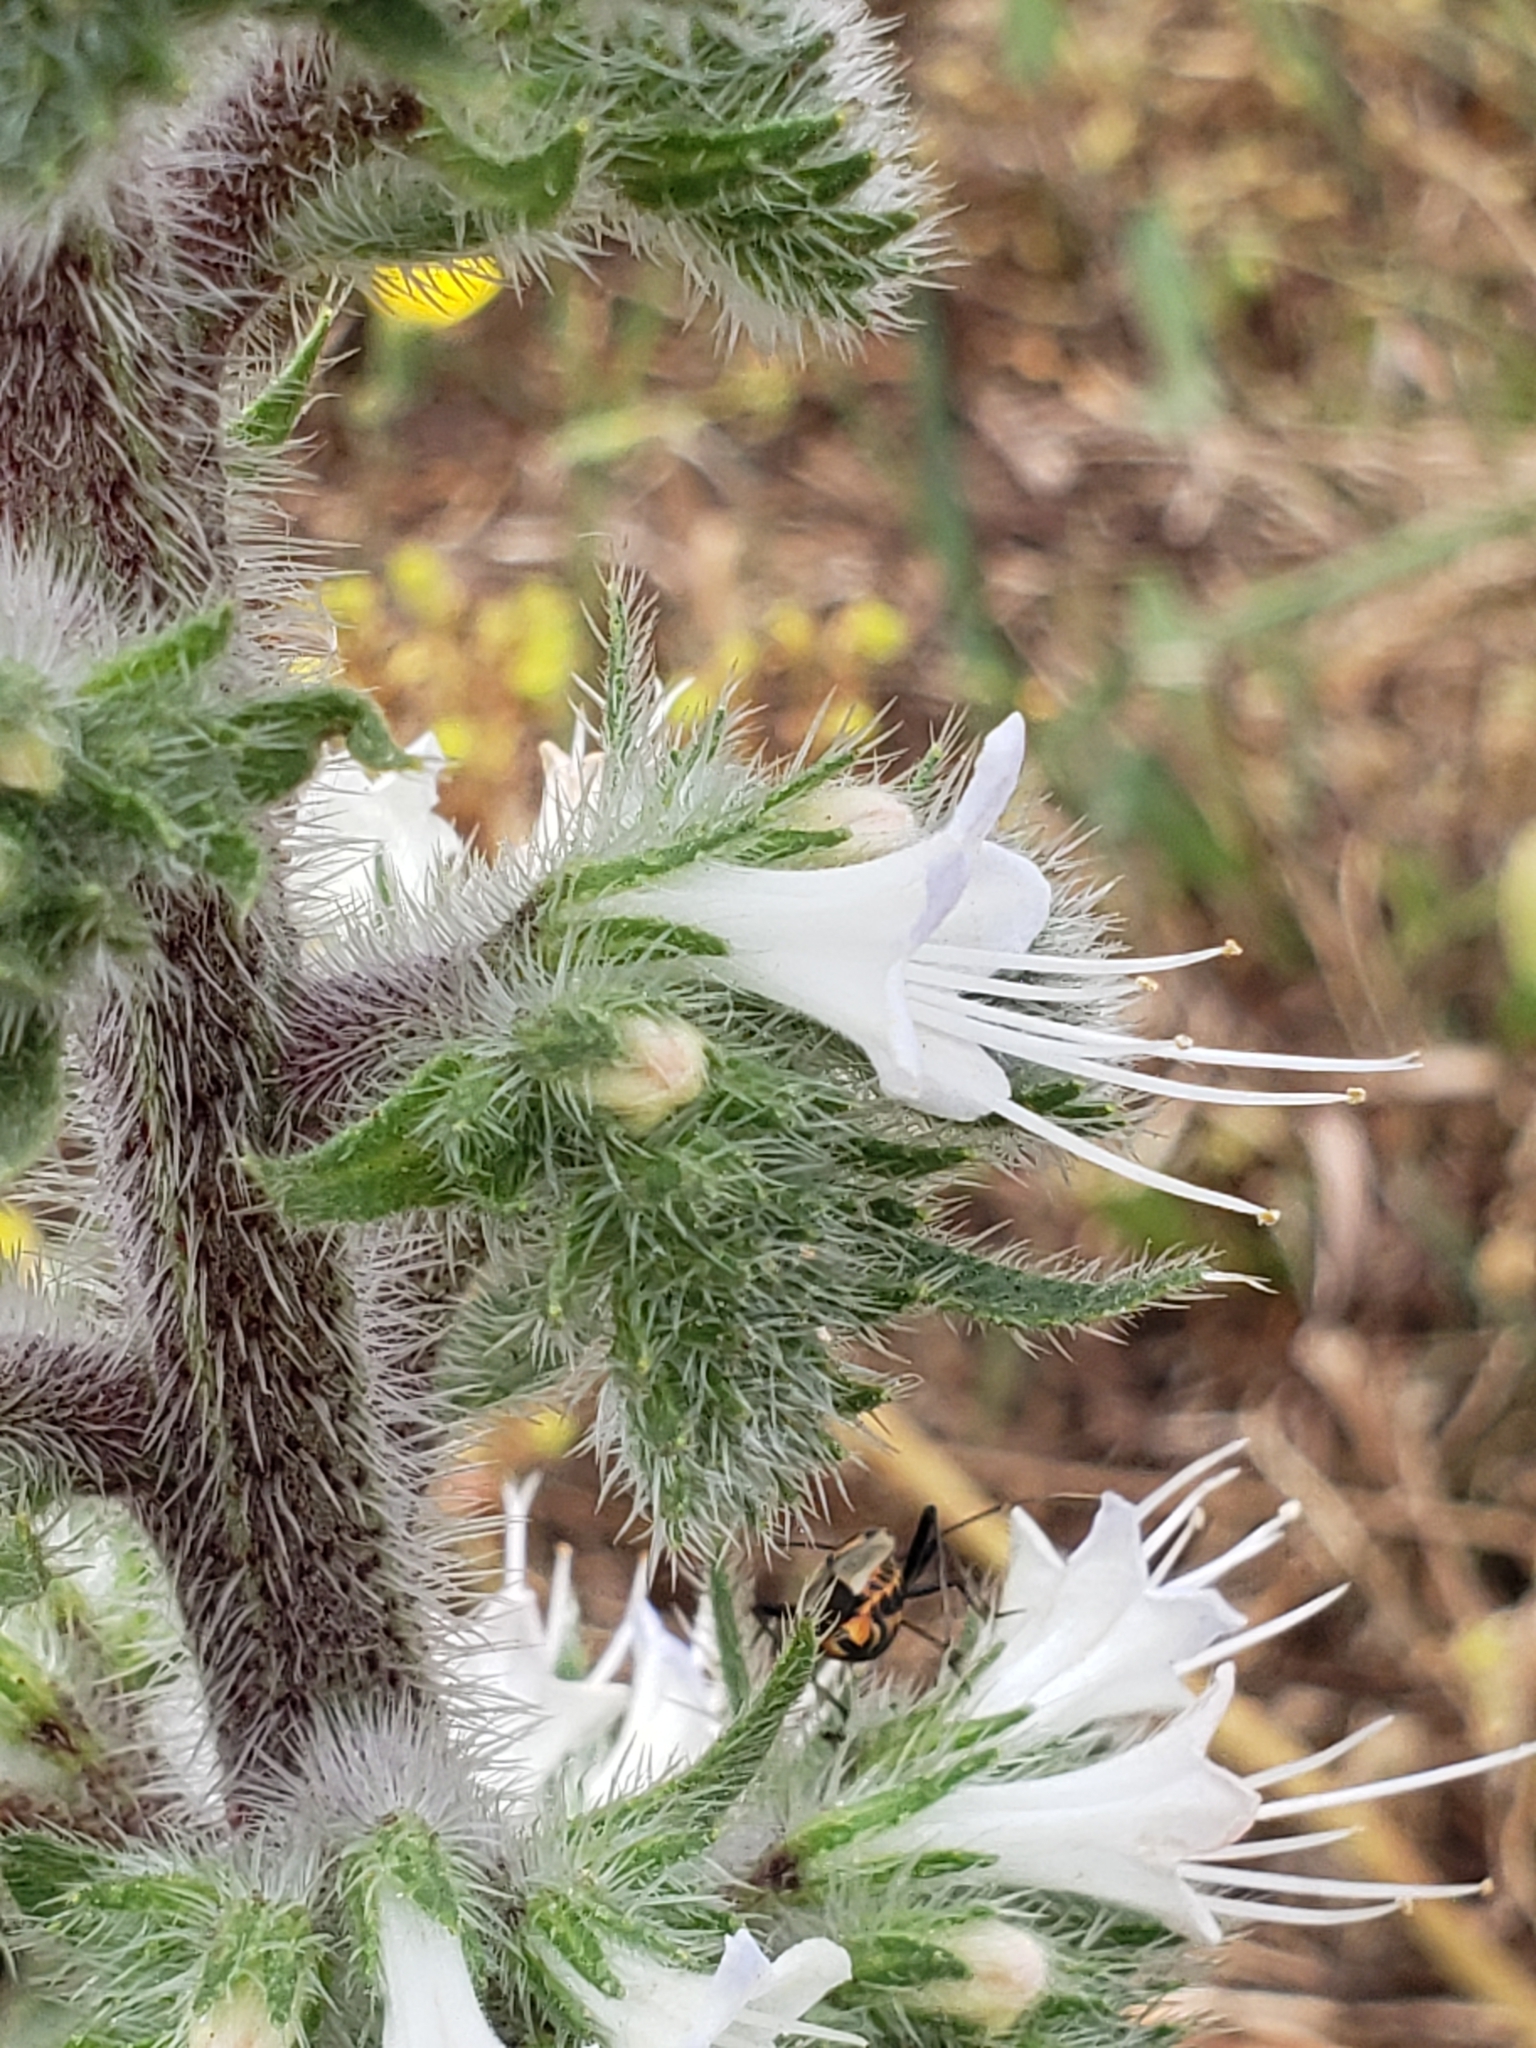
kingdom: Plantae
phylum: Tracheophyta
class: Magnoliopsida
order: Boraginales
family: Boraginaceae
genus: Echium
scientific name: Echium italicum
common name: Italian viper's bugloss
